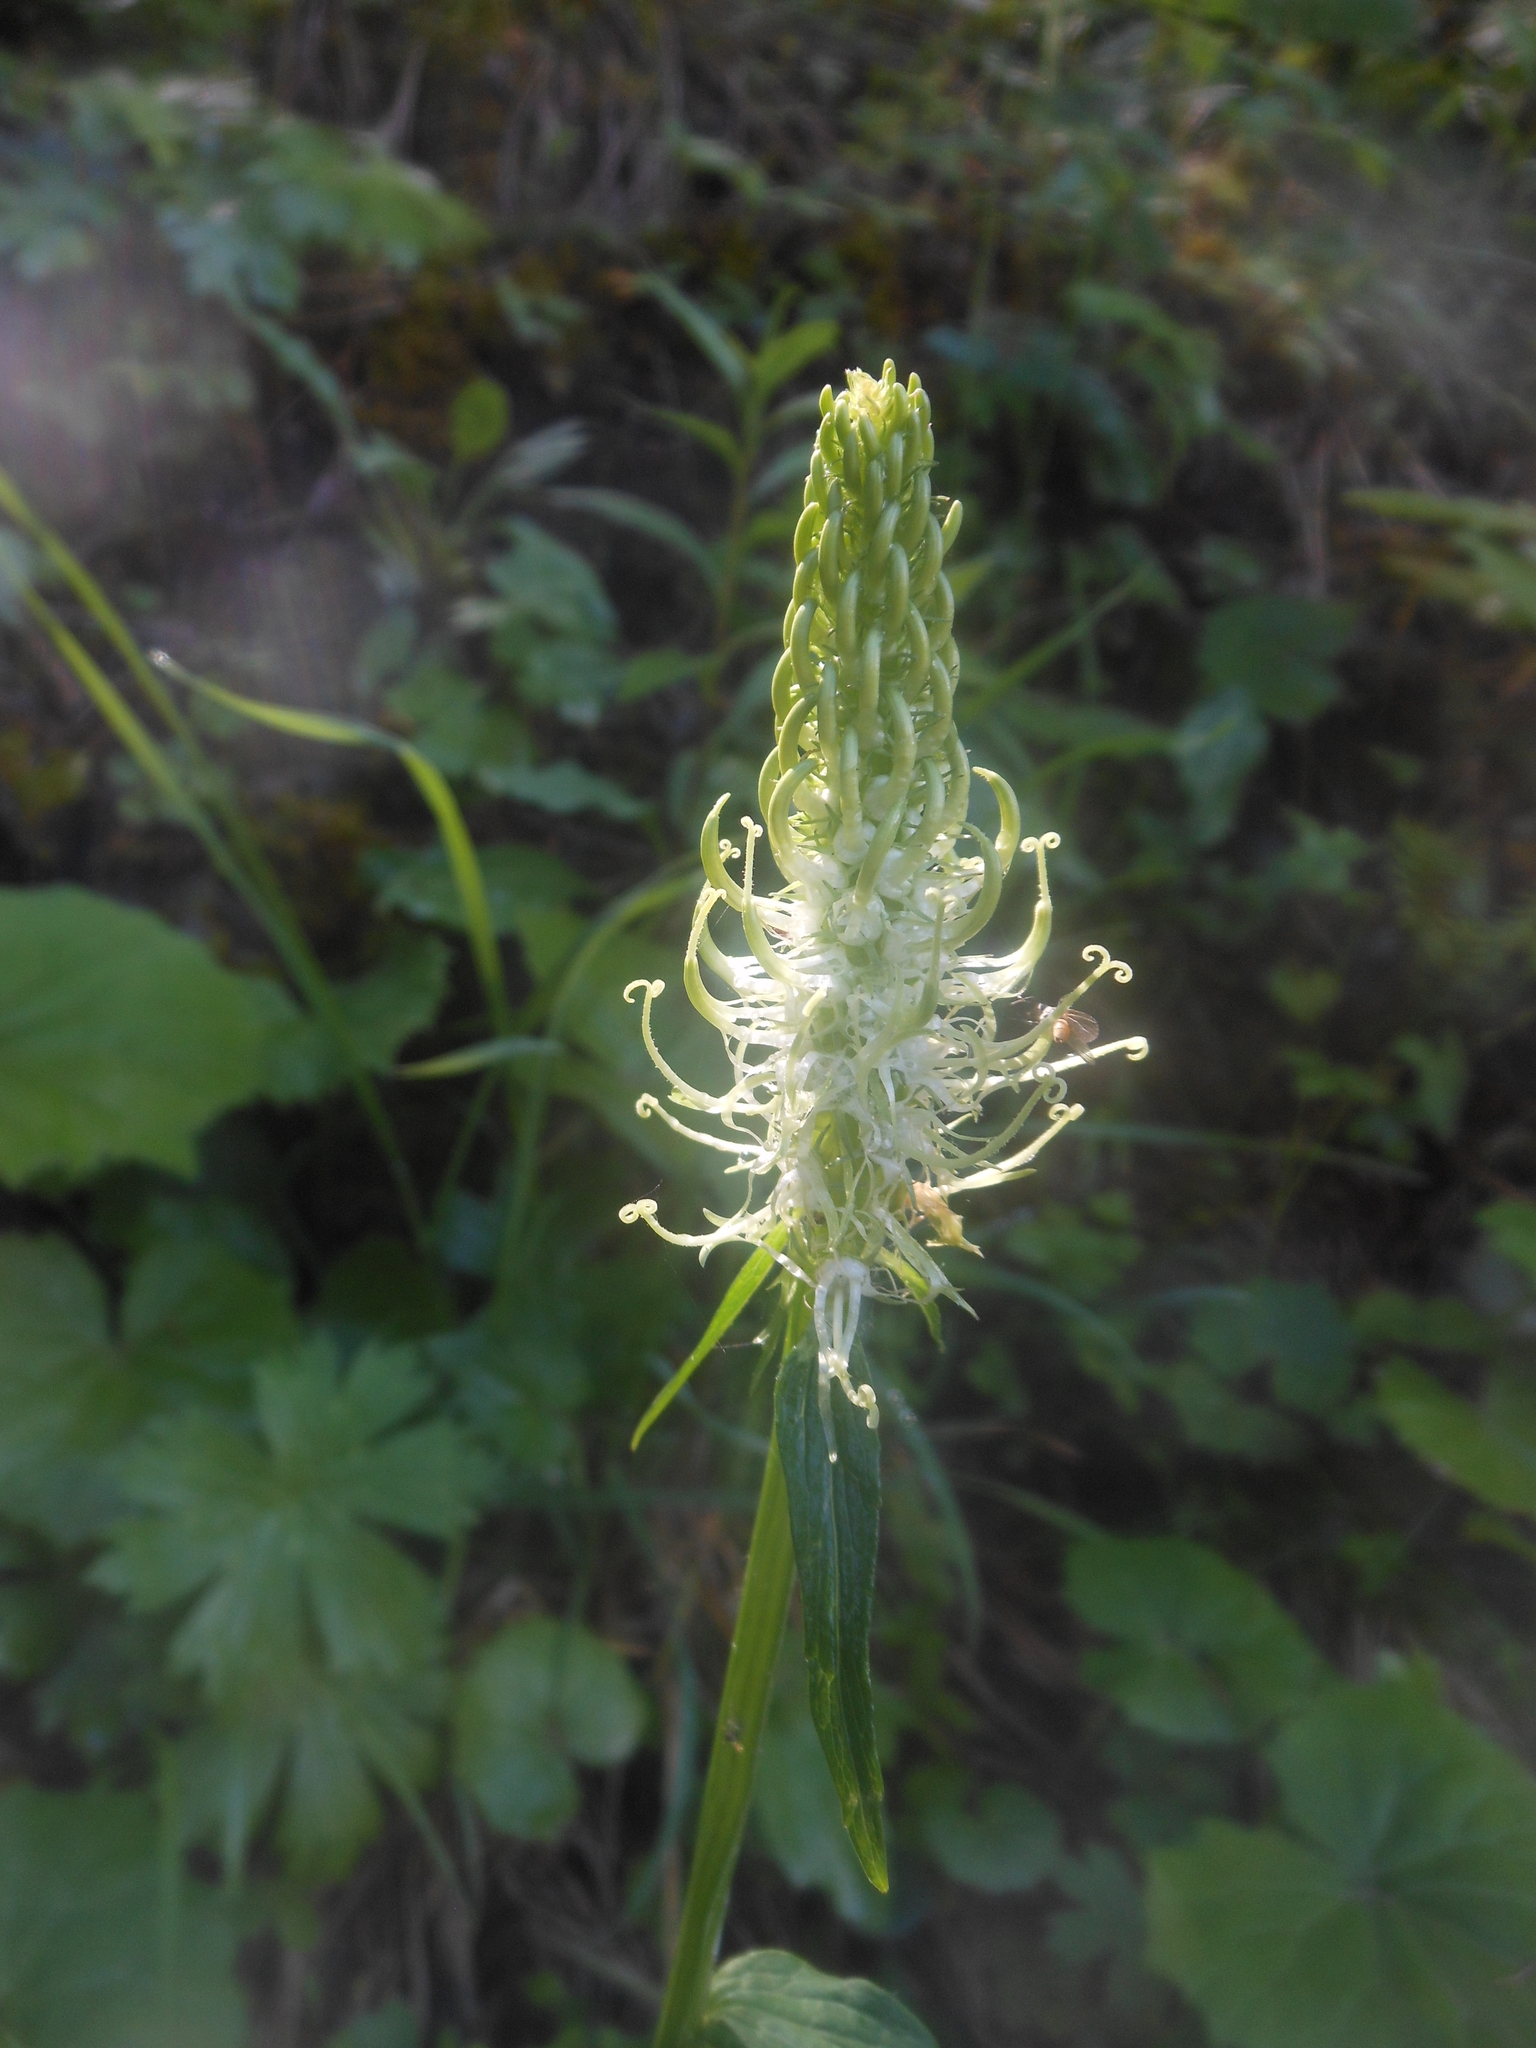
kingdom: Plantae
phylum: Tracheophyta
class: Magnoliopsida
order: Asterales
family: Campanulaceae
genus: Phyteuma
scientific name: Phyteuma spicatum
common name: Spiked rampion
